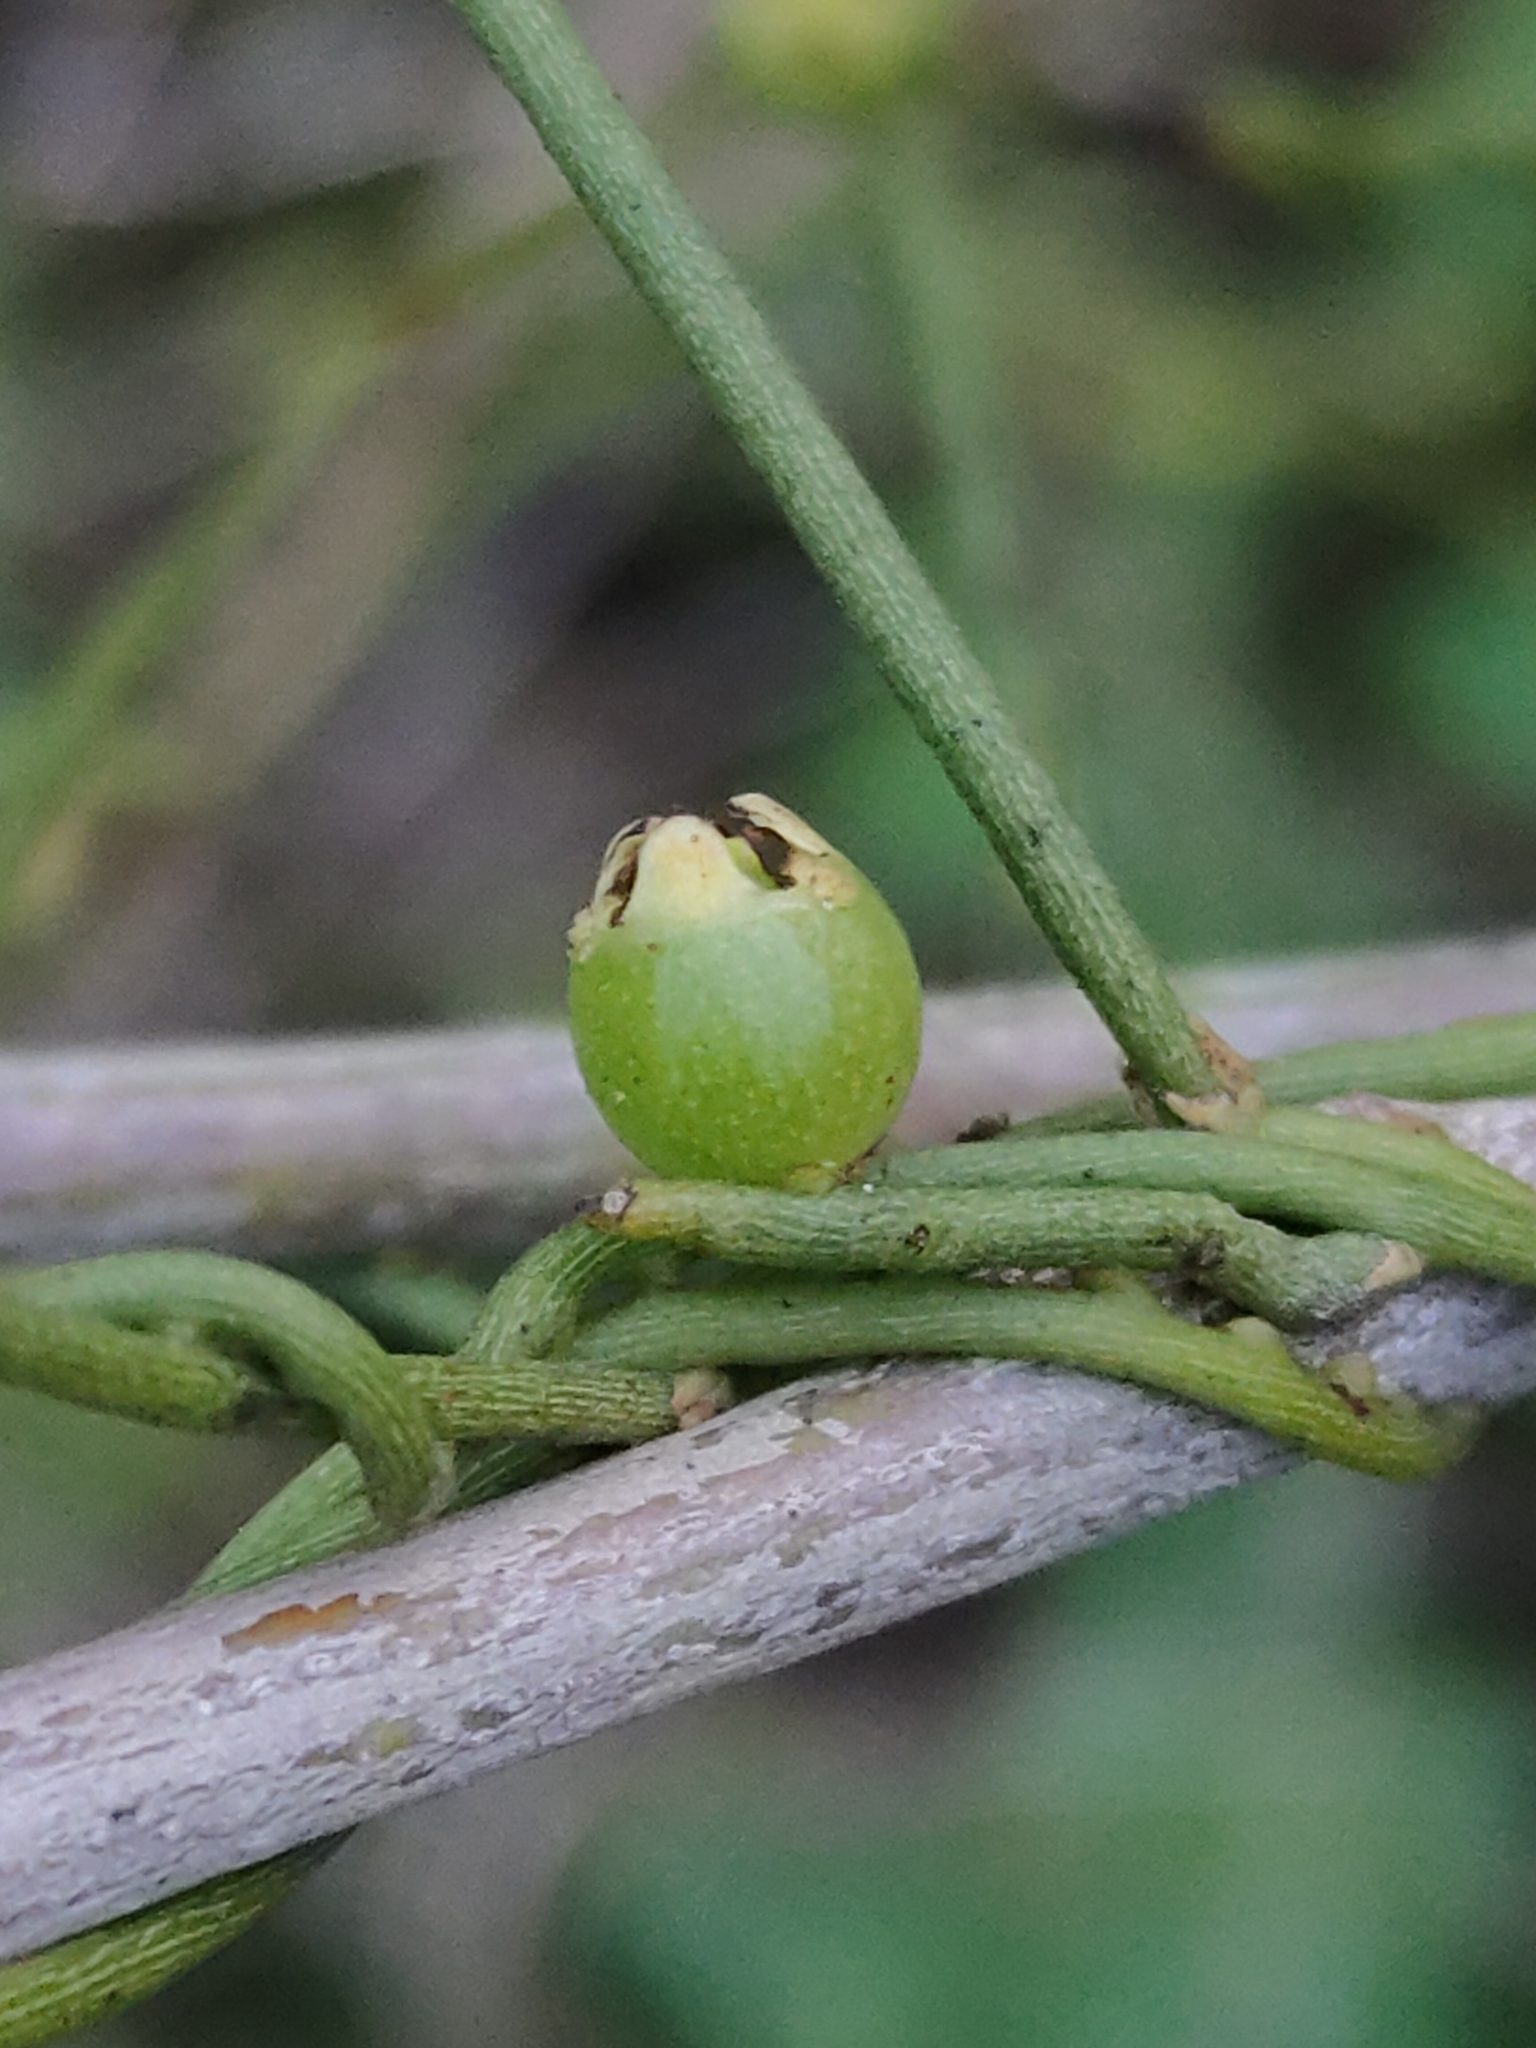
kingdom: Plantae
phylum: Tracheophyta
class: Magnoliopsida
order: Laurales
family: Lauraceae
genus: Cassytha
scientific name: Cassytha filiformis
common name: Dodder-laurel
